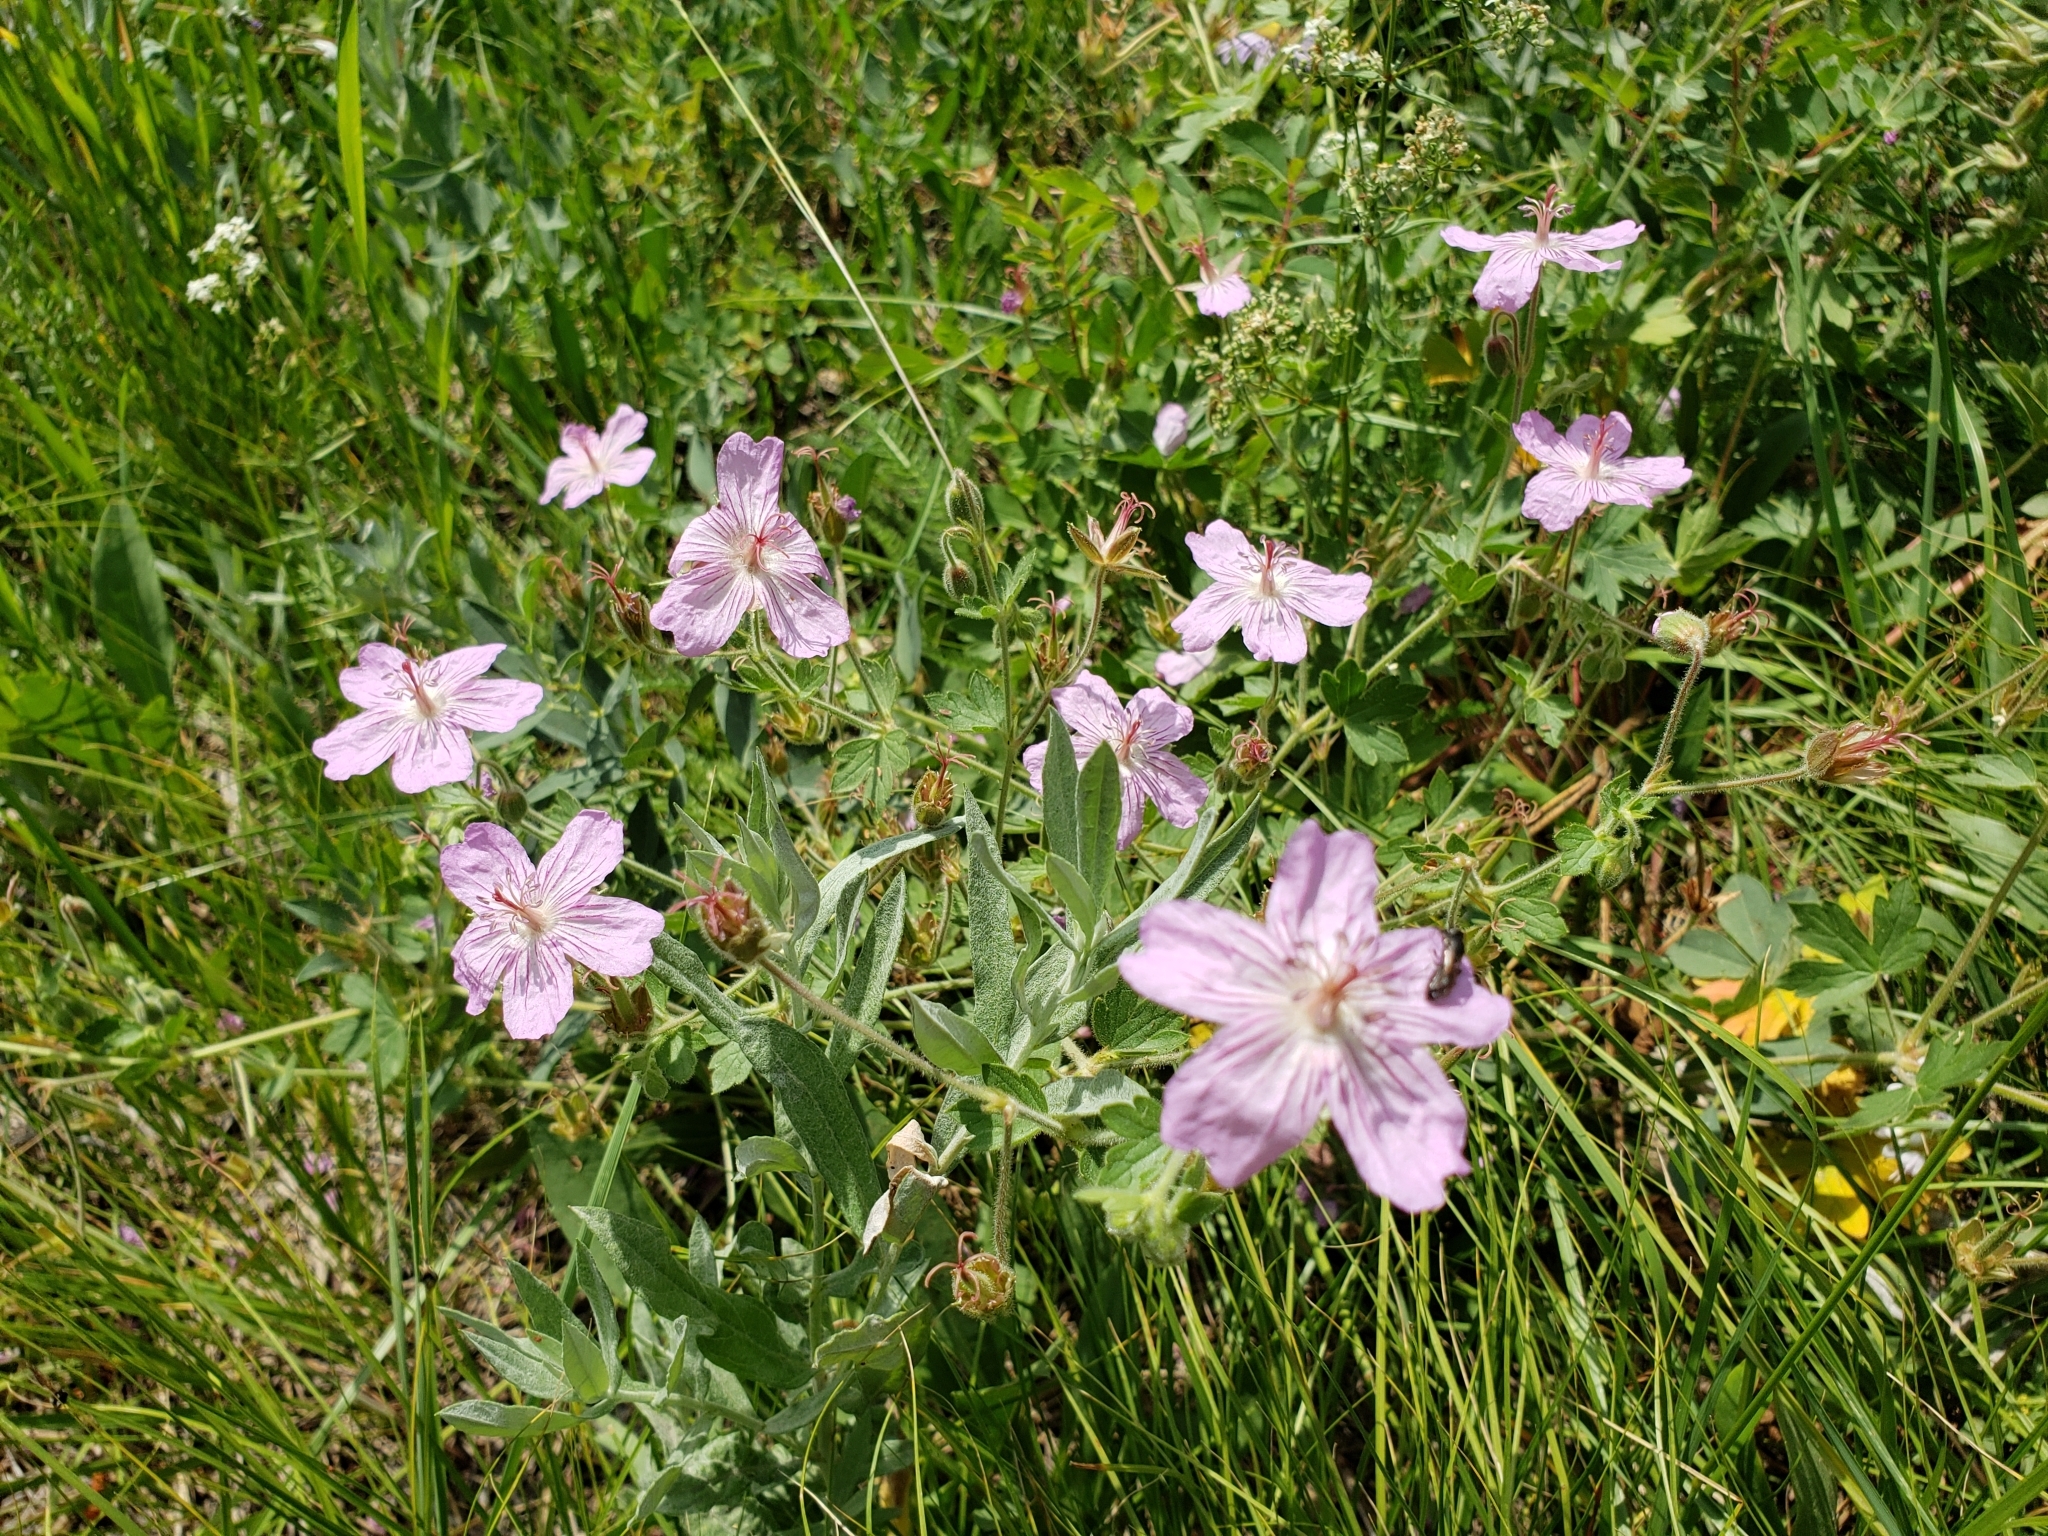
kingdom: Plantae
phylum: Tracheophyta
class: Magnoliopsida
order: Geraniales
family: Geraniaceae
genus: Geranium
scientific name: Geranium caespitosum
